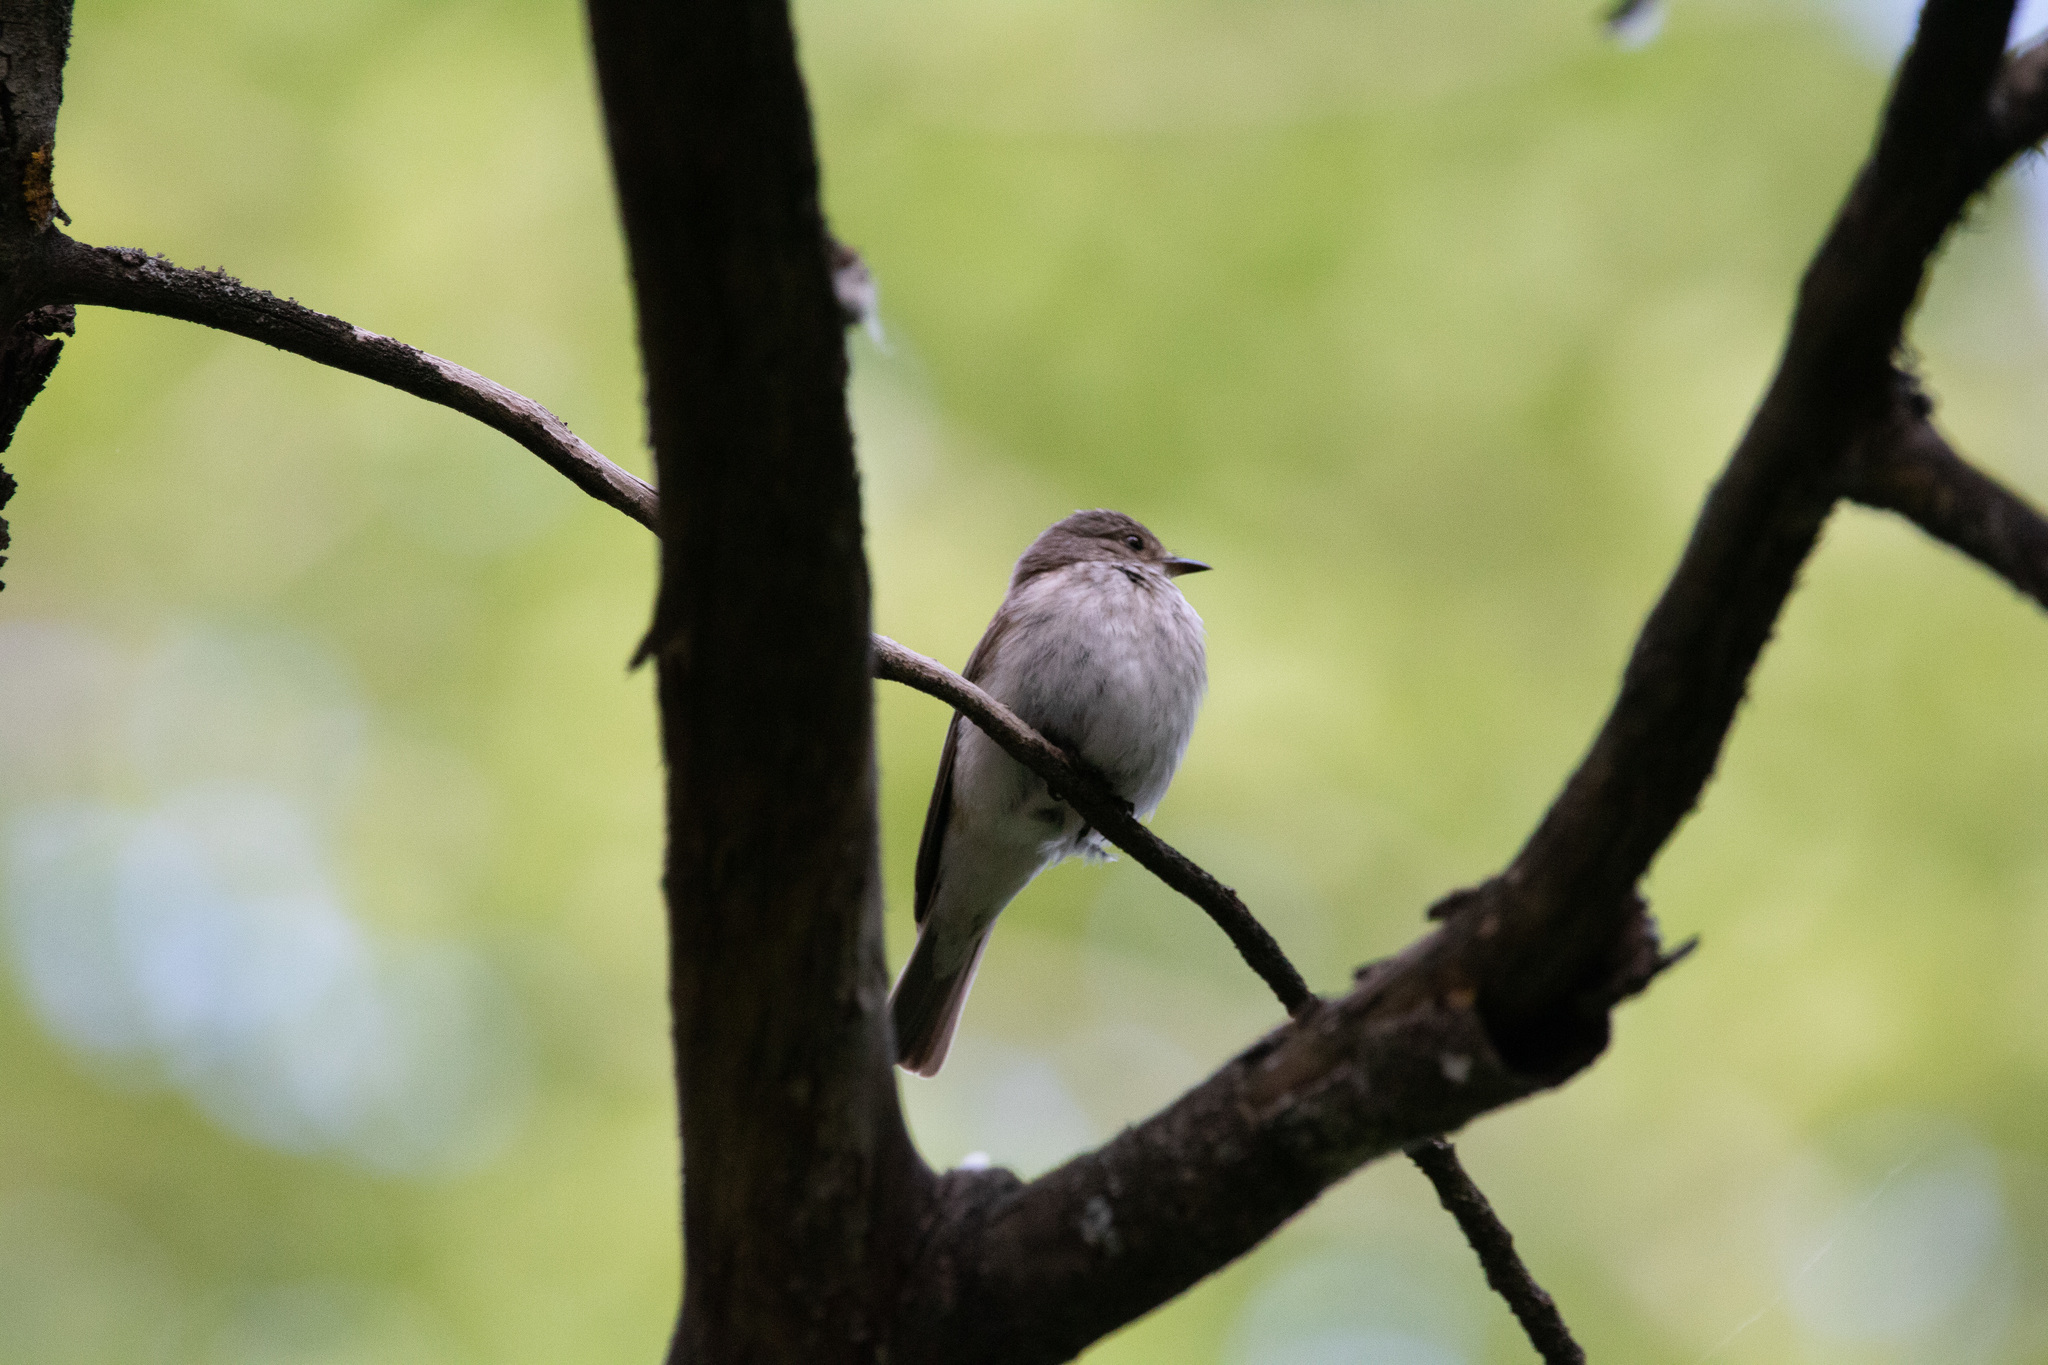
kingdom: Animalia
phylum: Chordata
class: Aves
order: Passeriformes
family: Muscicapidae
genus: Muscicapa
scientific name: Muscicapa striata
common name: Spotted flycatcher
